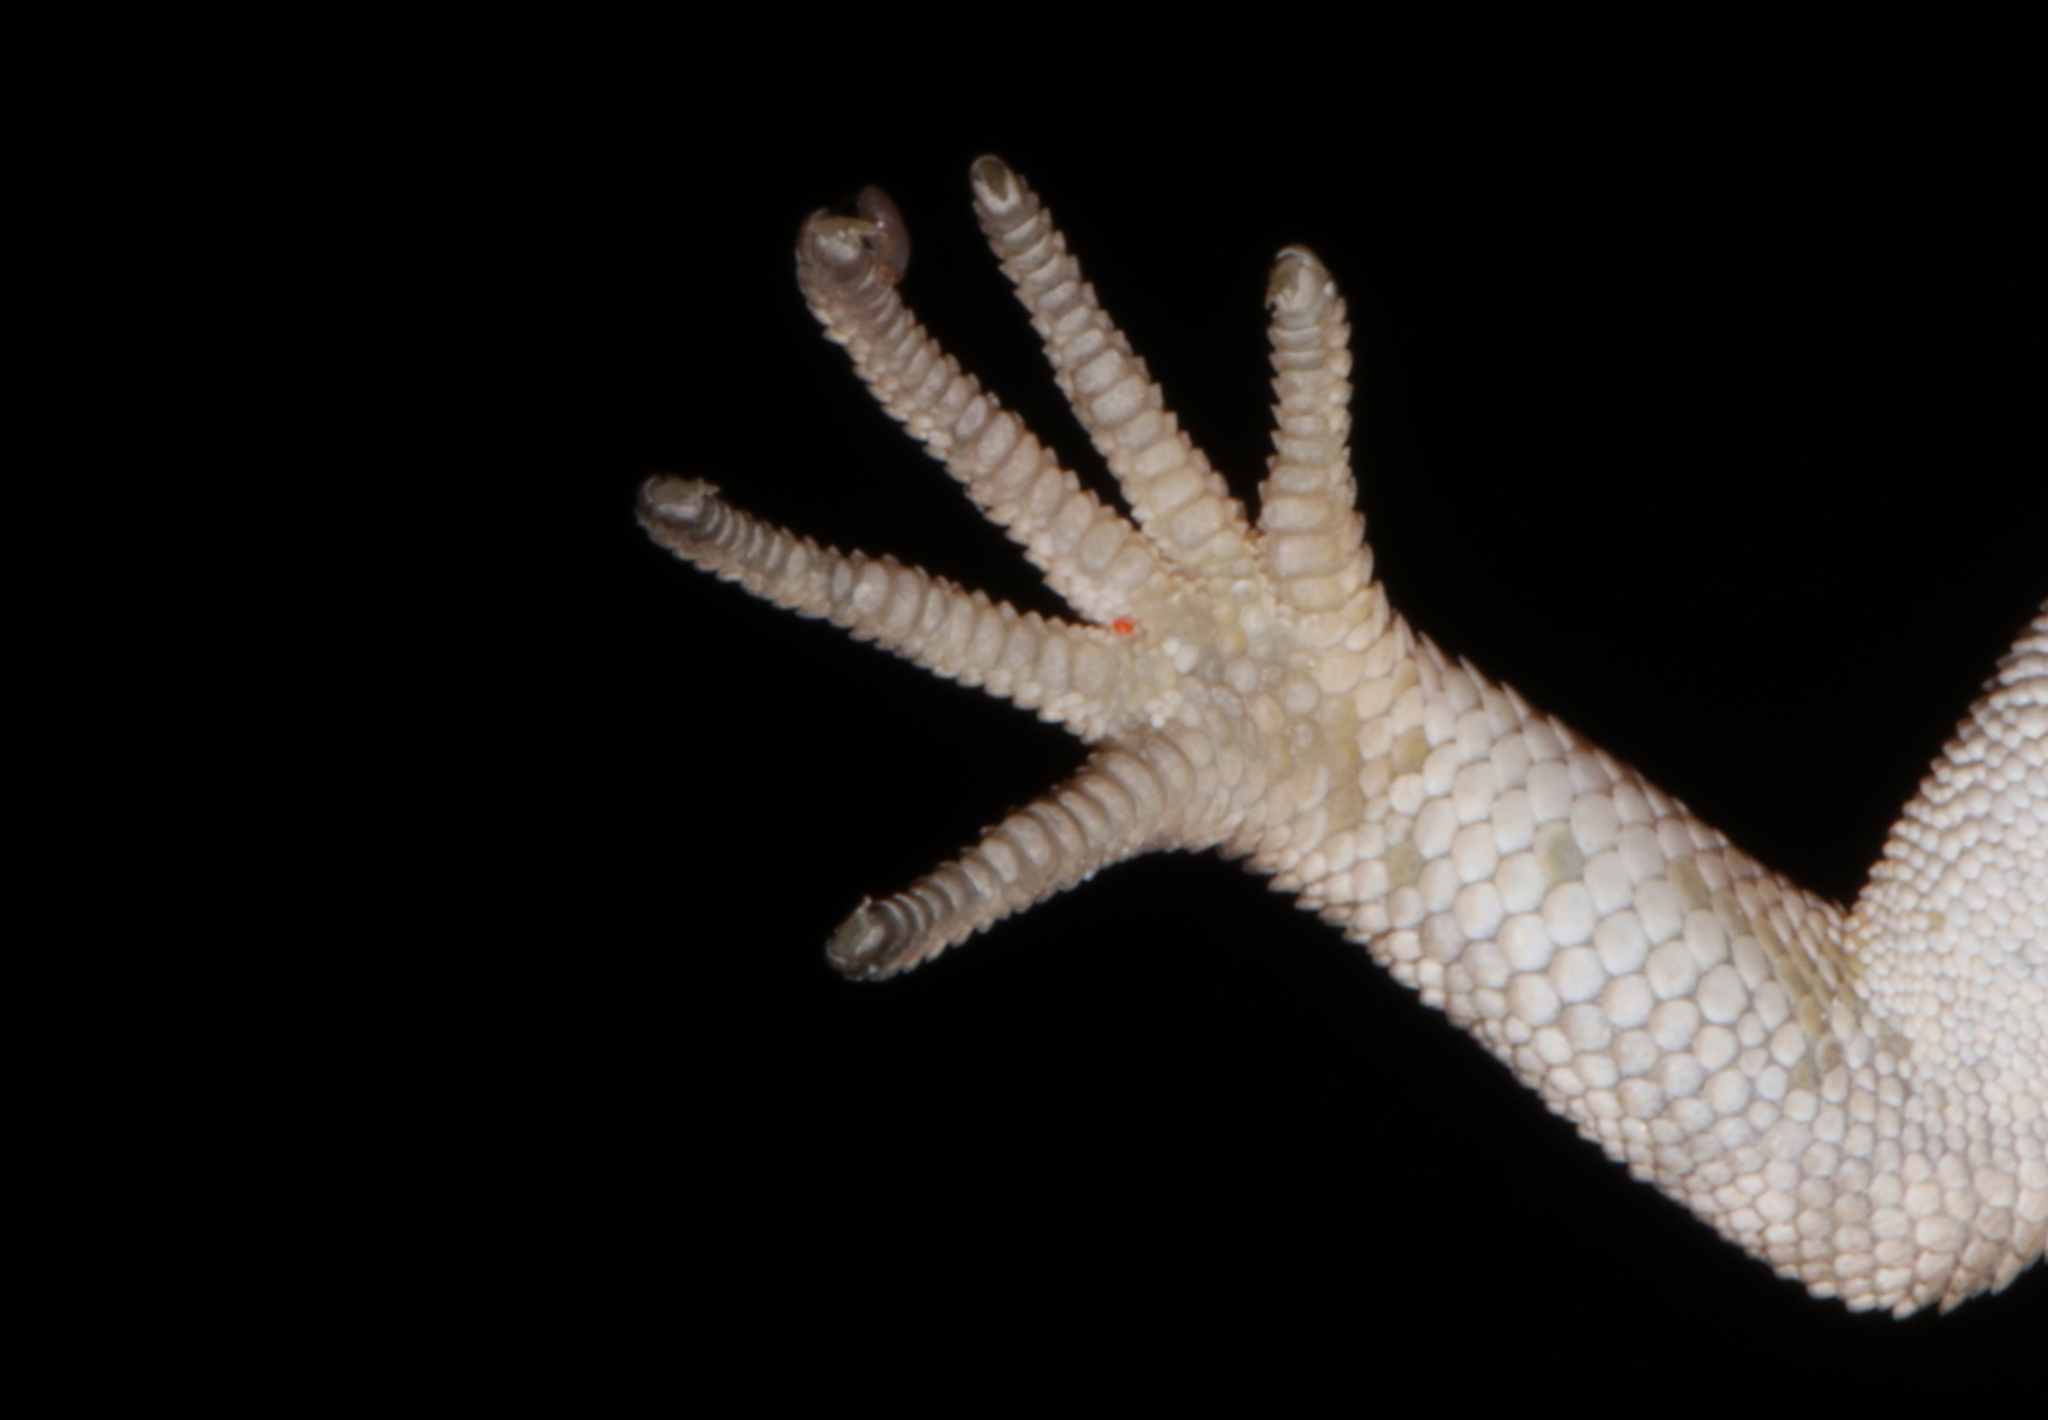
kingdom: Animalia
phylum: Chordata
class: Squamata
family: Gekkonidae
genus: Mediodactylus
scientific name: Mediodactylus kotschyi
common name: Kotschy's gecko
